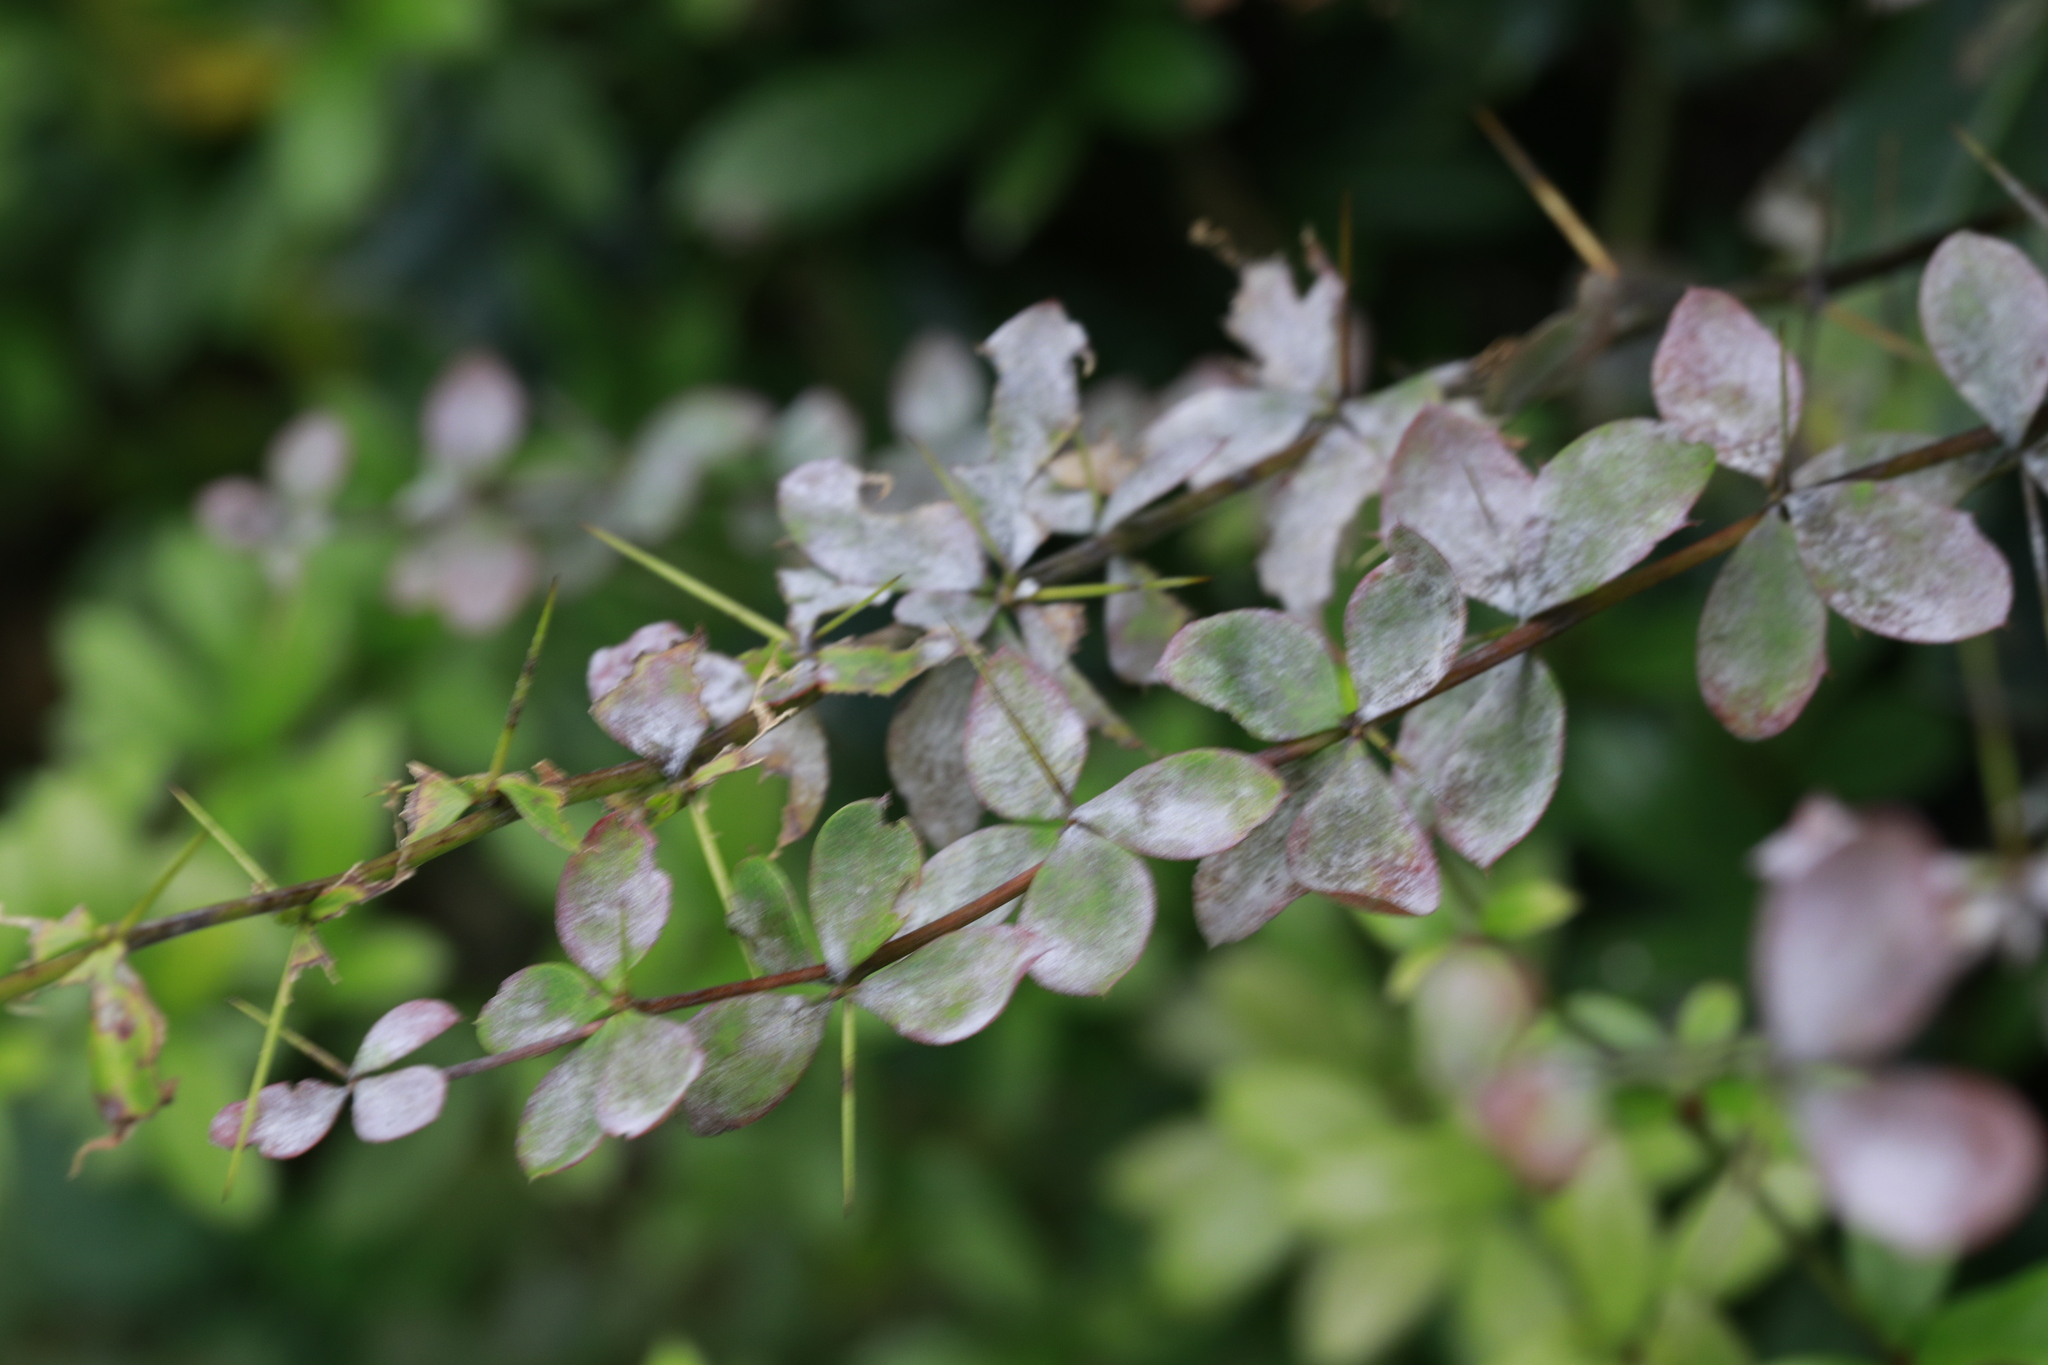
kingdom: Fungi
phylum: Ascomycota
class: Leotiomycetes
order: Helotiales
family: Erysiphaceae
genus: Erysiphe
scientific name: Erysiphe berberidis
